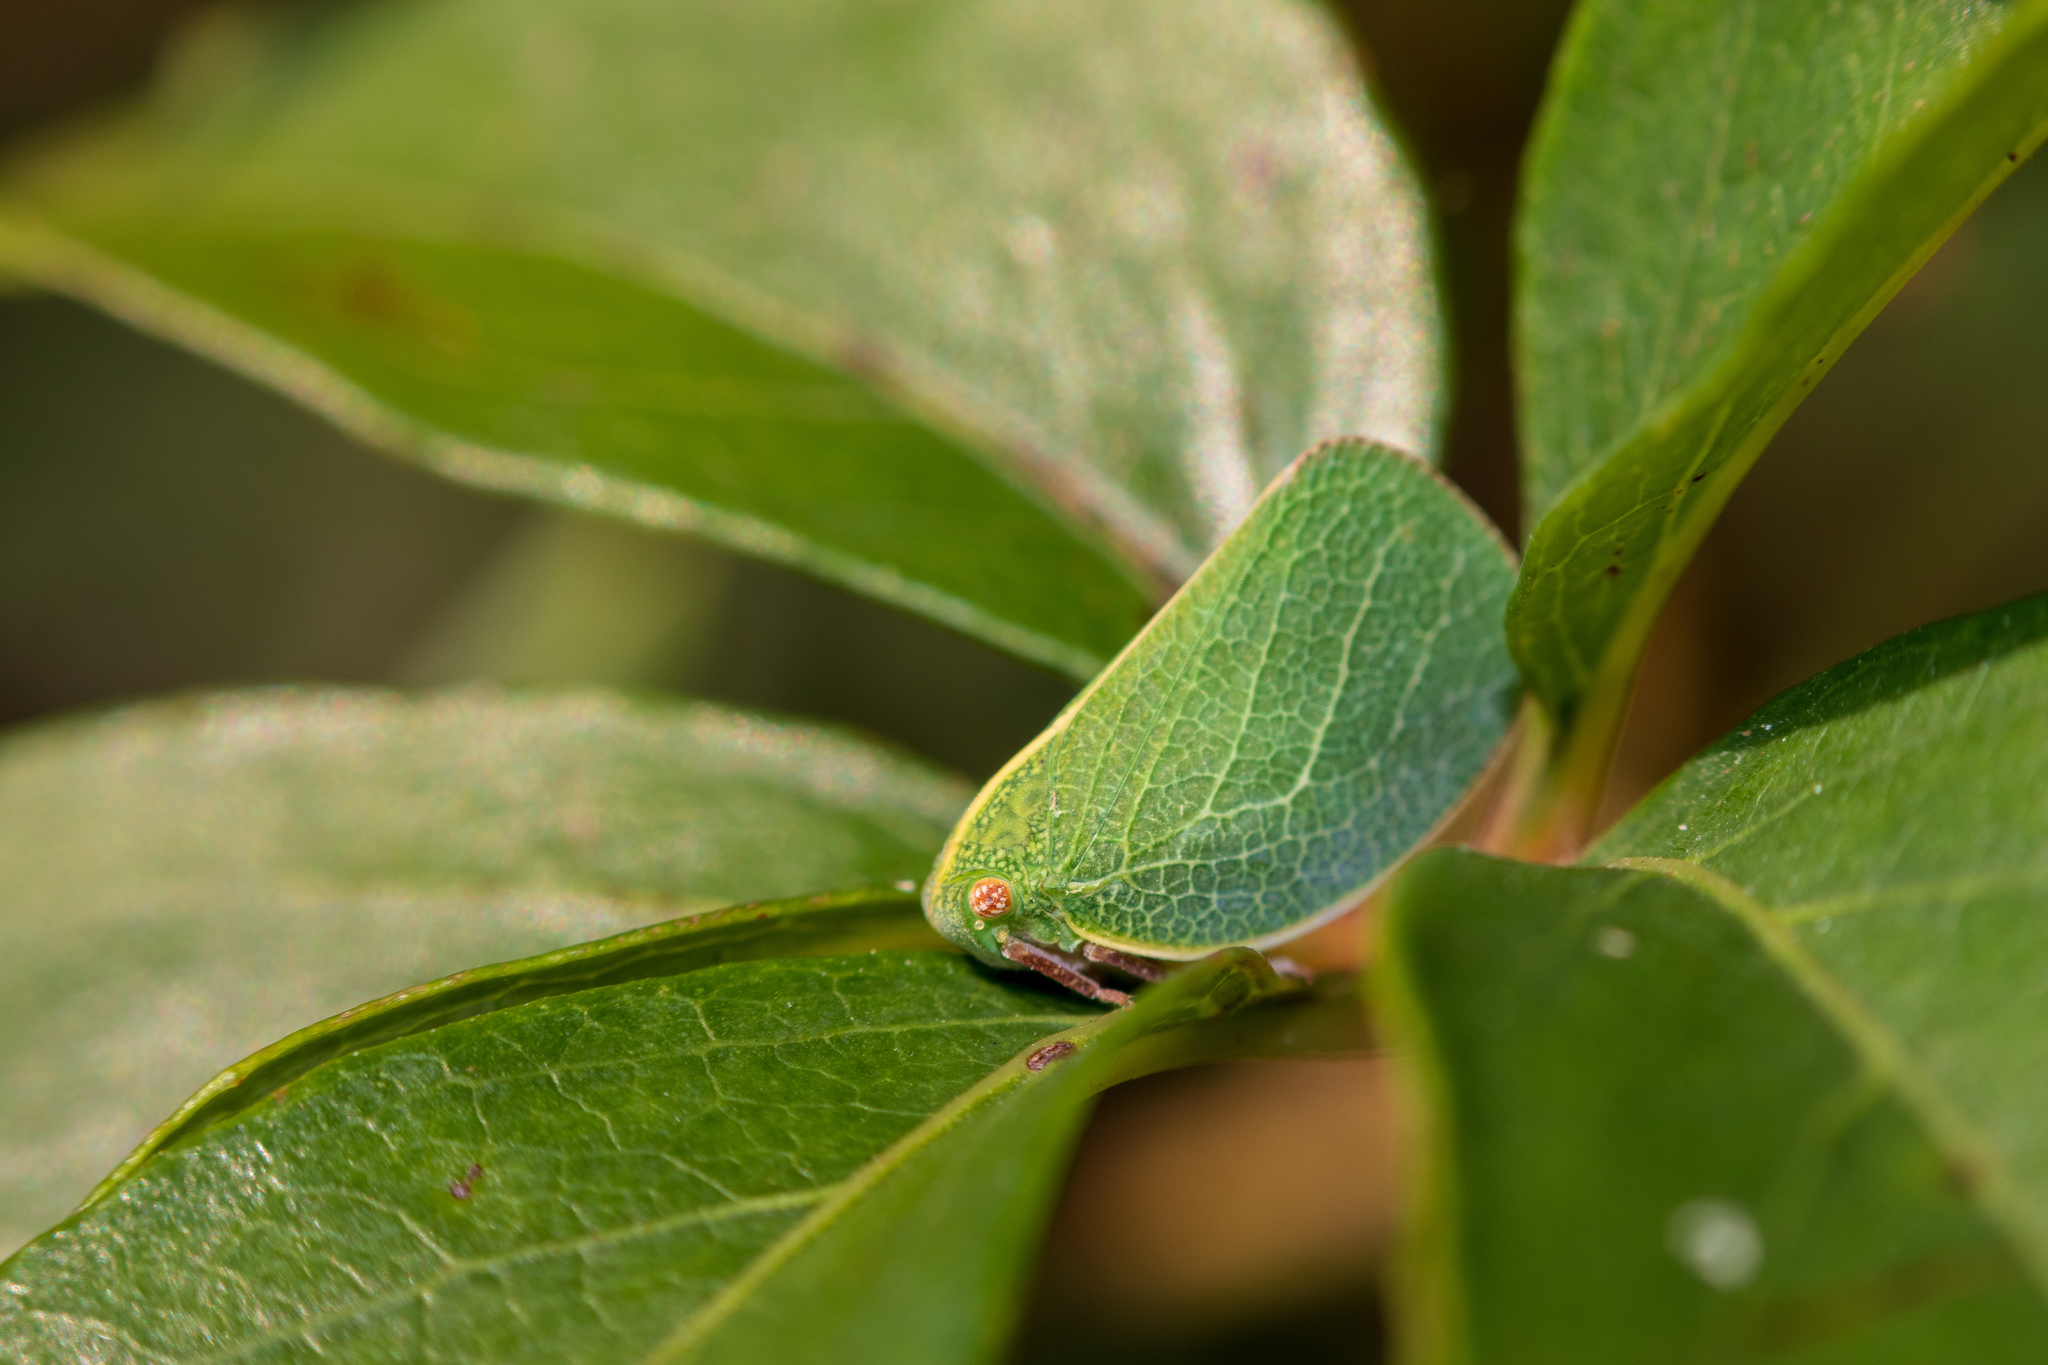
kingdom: Animalia
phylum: Arthropoda
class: Insecta
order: Hemiptera
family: Acanaloniidae
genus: Acanalonia
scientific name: Acanalonia servillei
